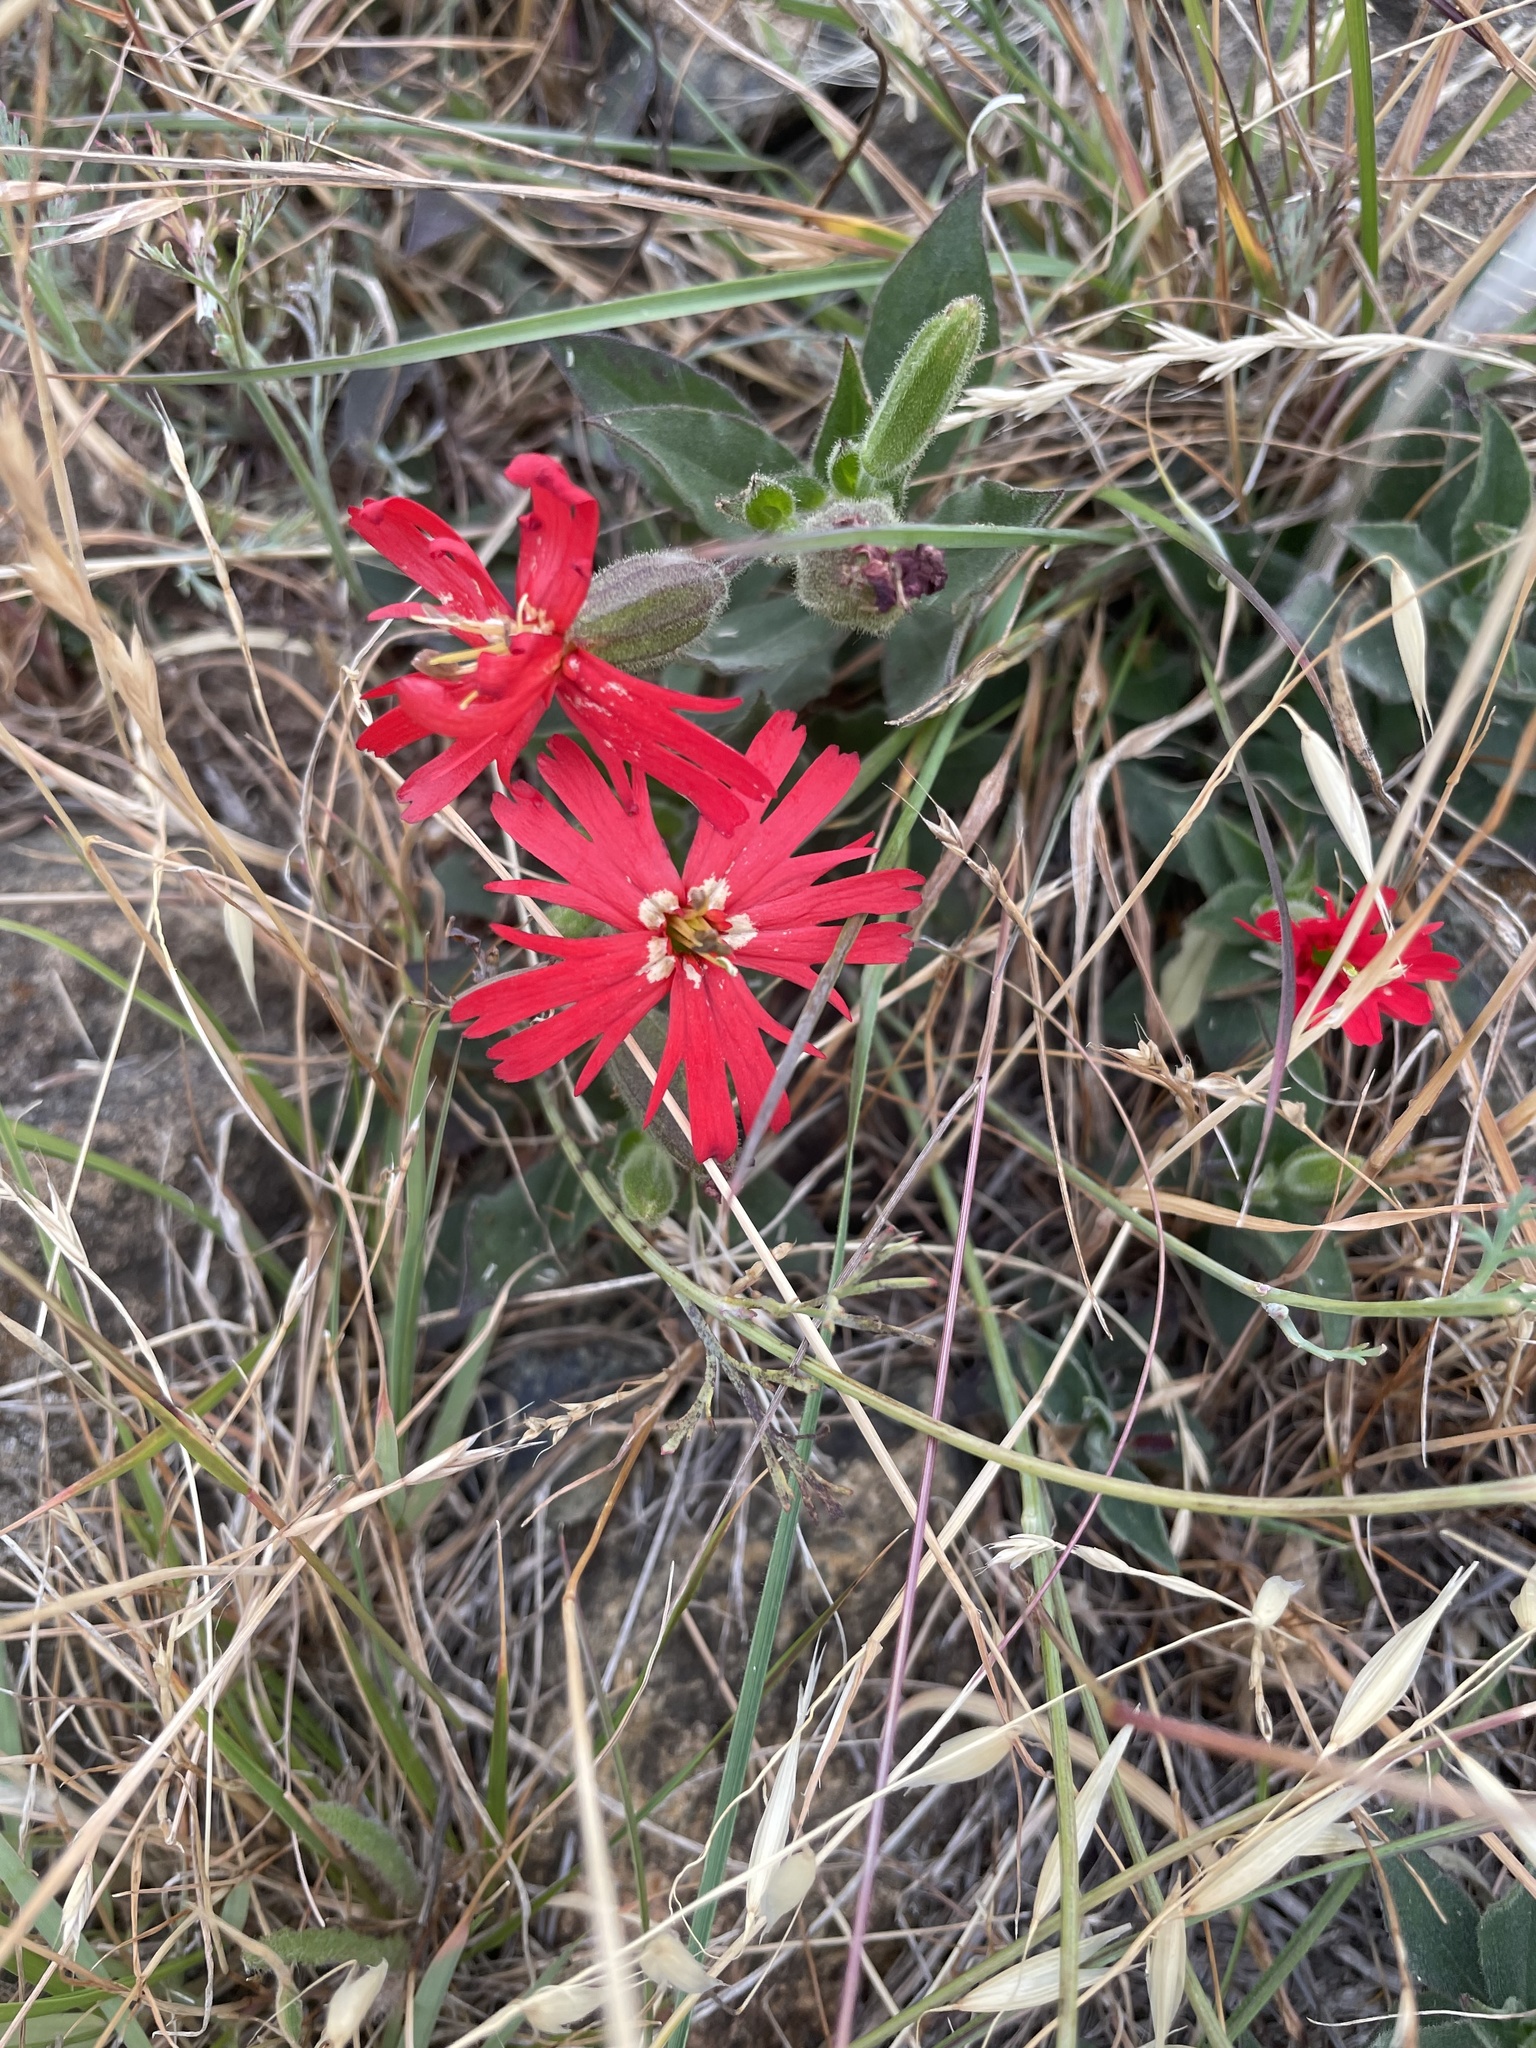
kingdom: Plantae
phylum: Tracheophyta
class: Magnoliopsida
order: Caryophyllales
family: Caryophyllaceae
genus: Silene
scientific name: Silene laciniata
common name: Indian-pink
